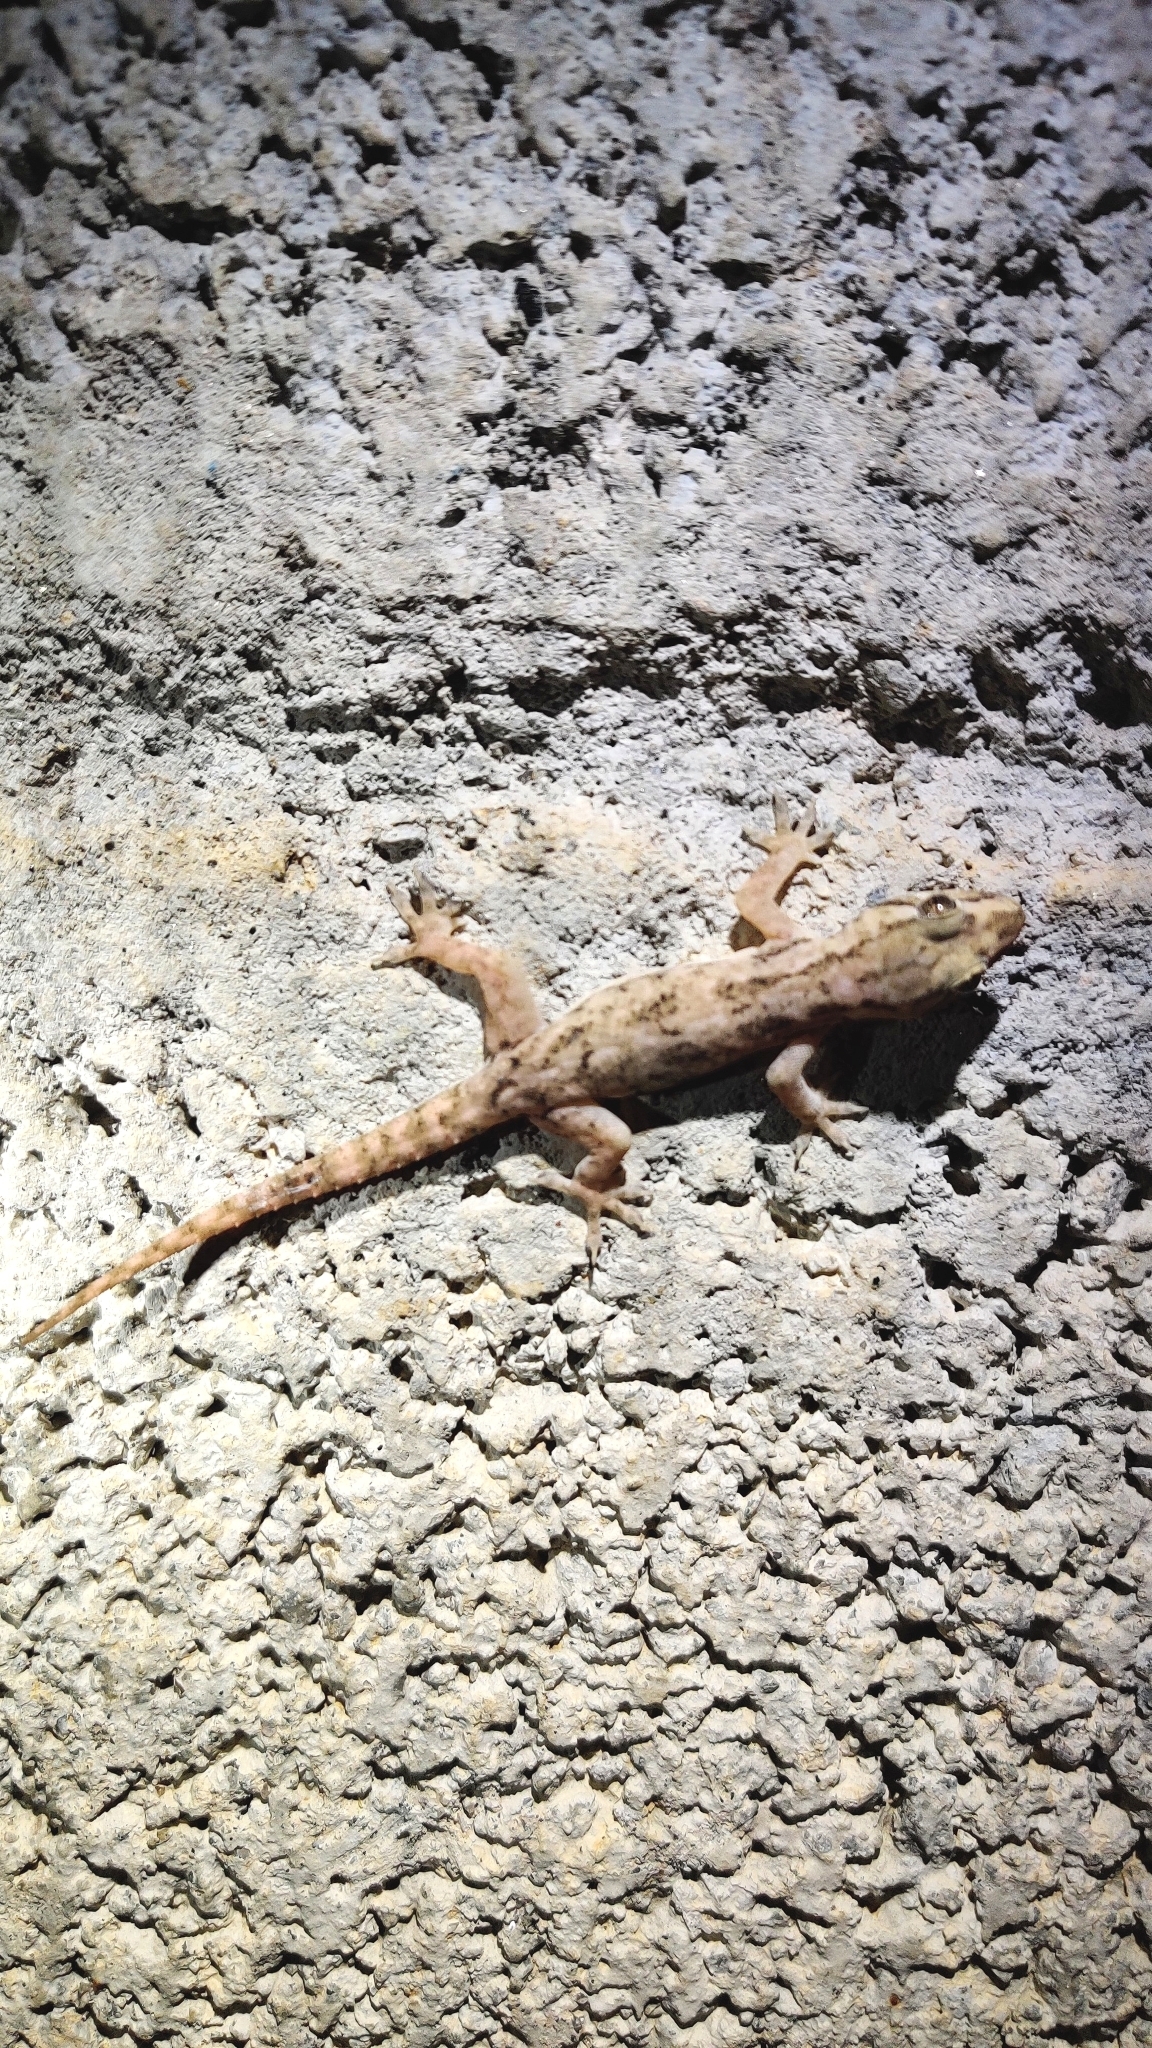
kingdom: Animalia
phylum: Chordata
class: Squamata
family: Gekkonidae
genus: Hemidactylus
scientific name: Hemidactylus frenatus
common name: Common house gecko
